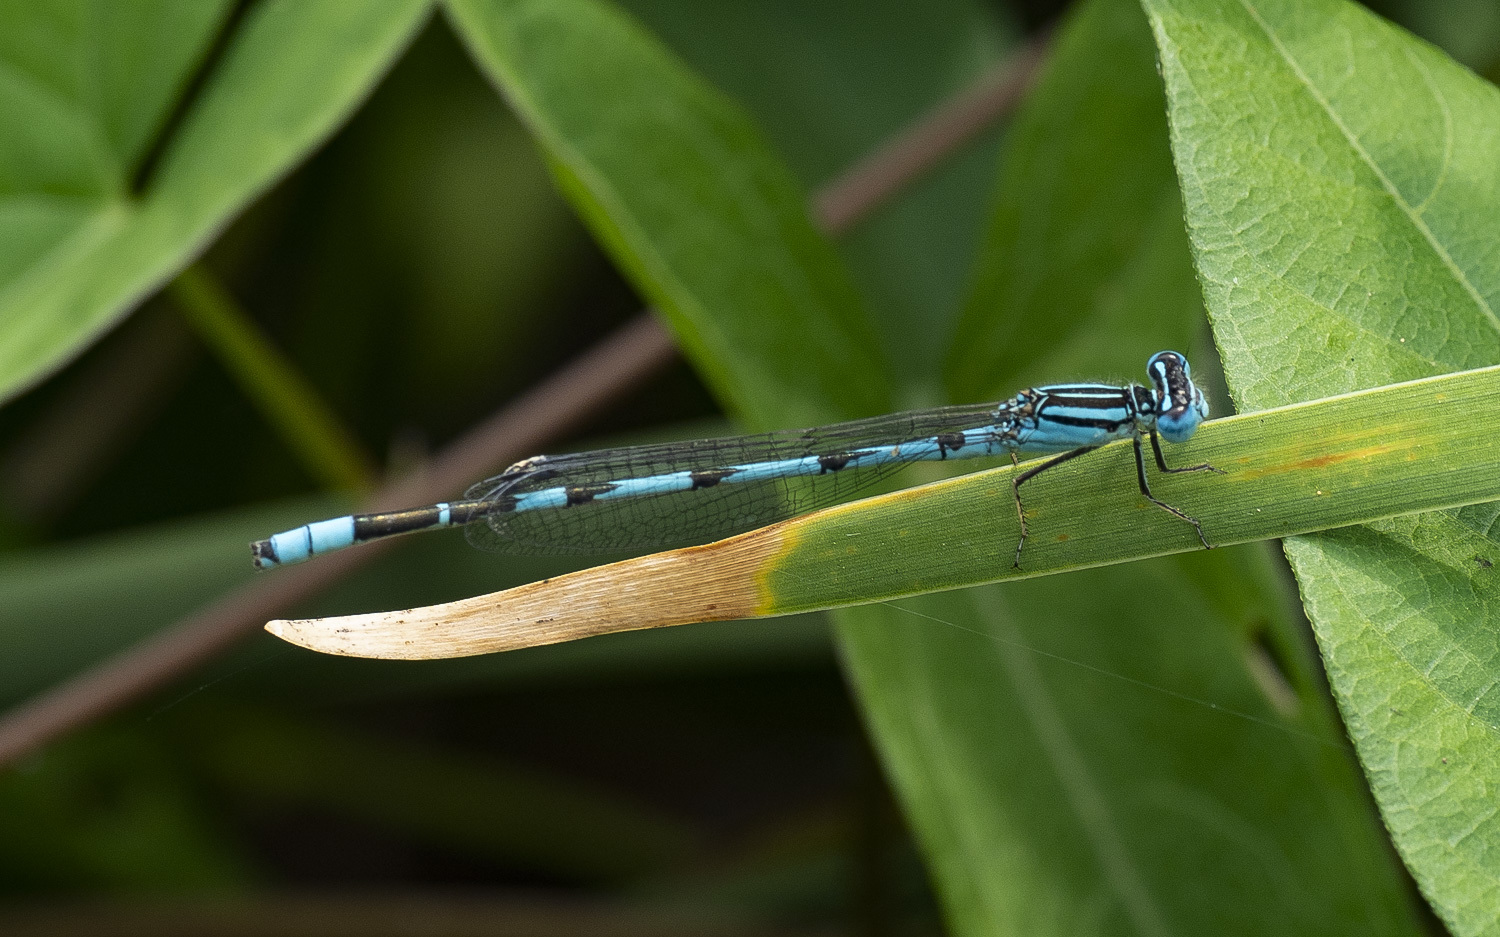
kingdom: Animalia
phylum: Arthropoda
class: Insecta
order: Odonata
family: Coenagrionidae
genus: Enallagma
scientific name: Enallagma durum
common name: Big bluet
